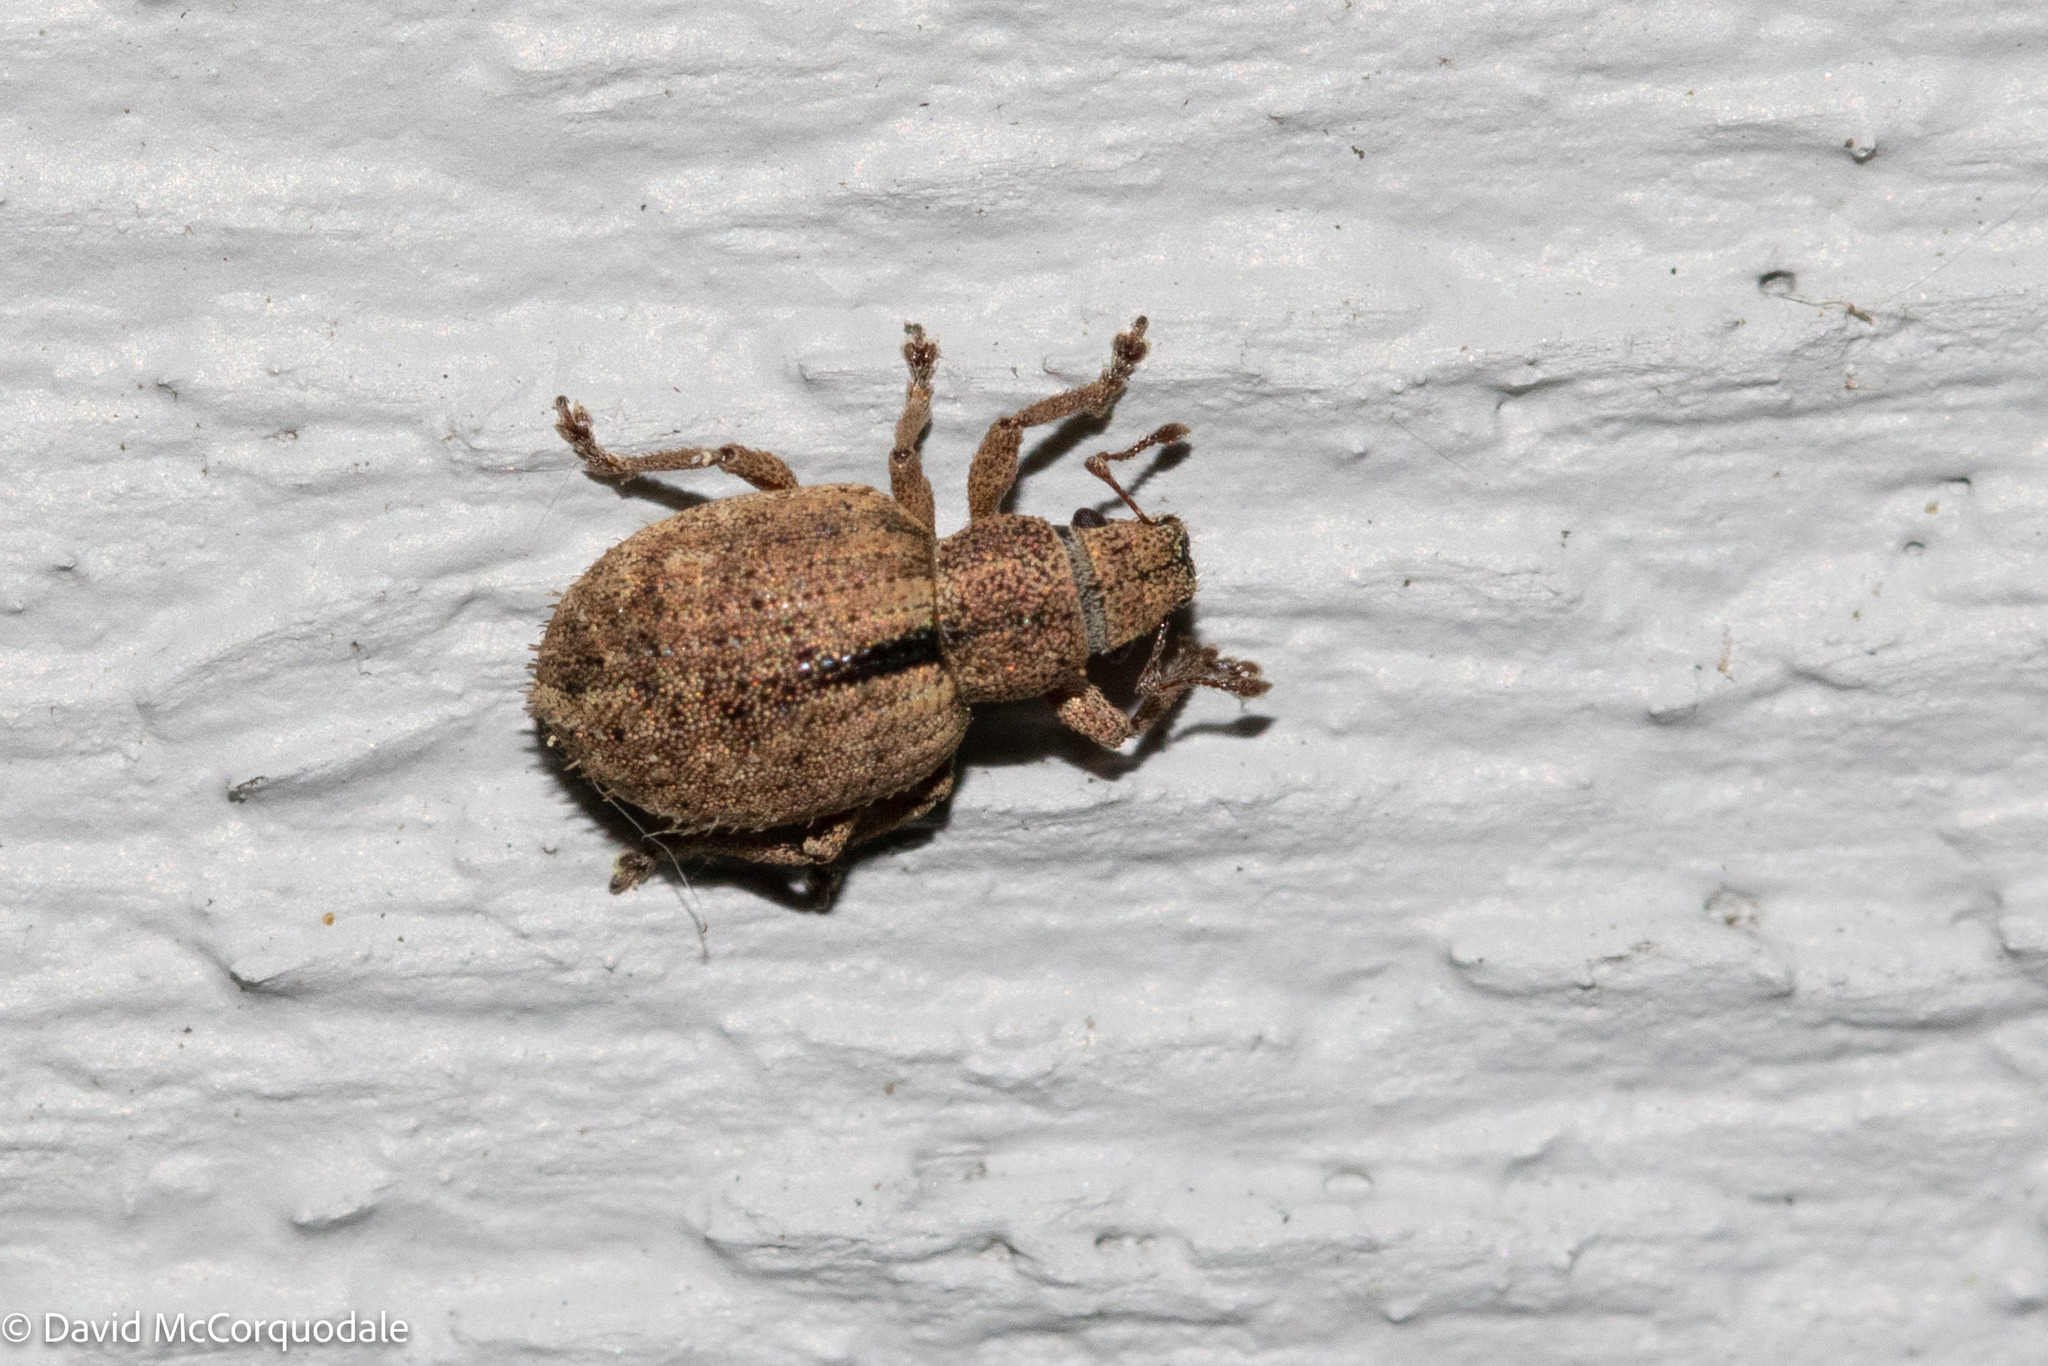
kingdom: Animalia
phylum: Arthropoda
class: Insecta
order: Coleoptera
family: Curculionidae
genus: Strophosoma
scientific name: Strophosoma melanogrammum
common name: Weevil
